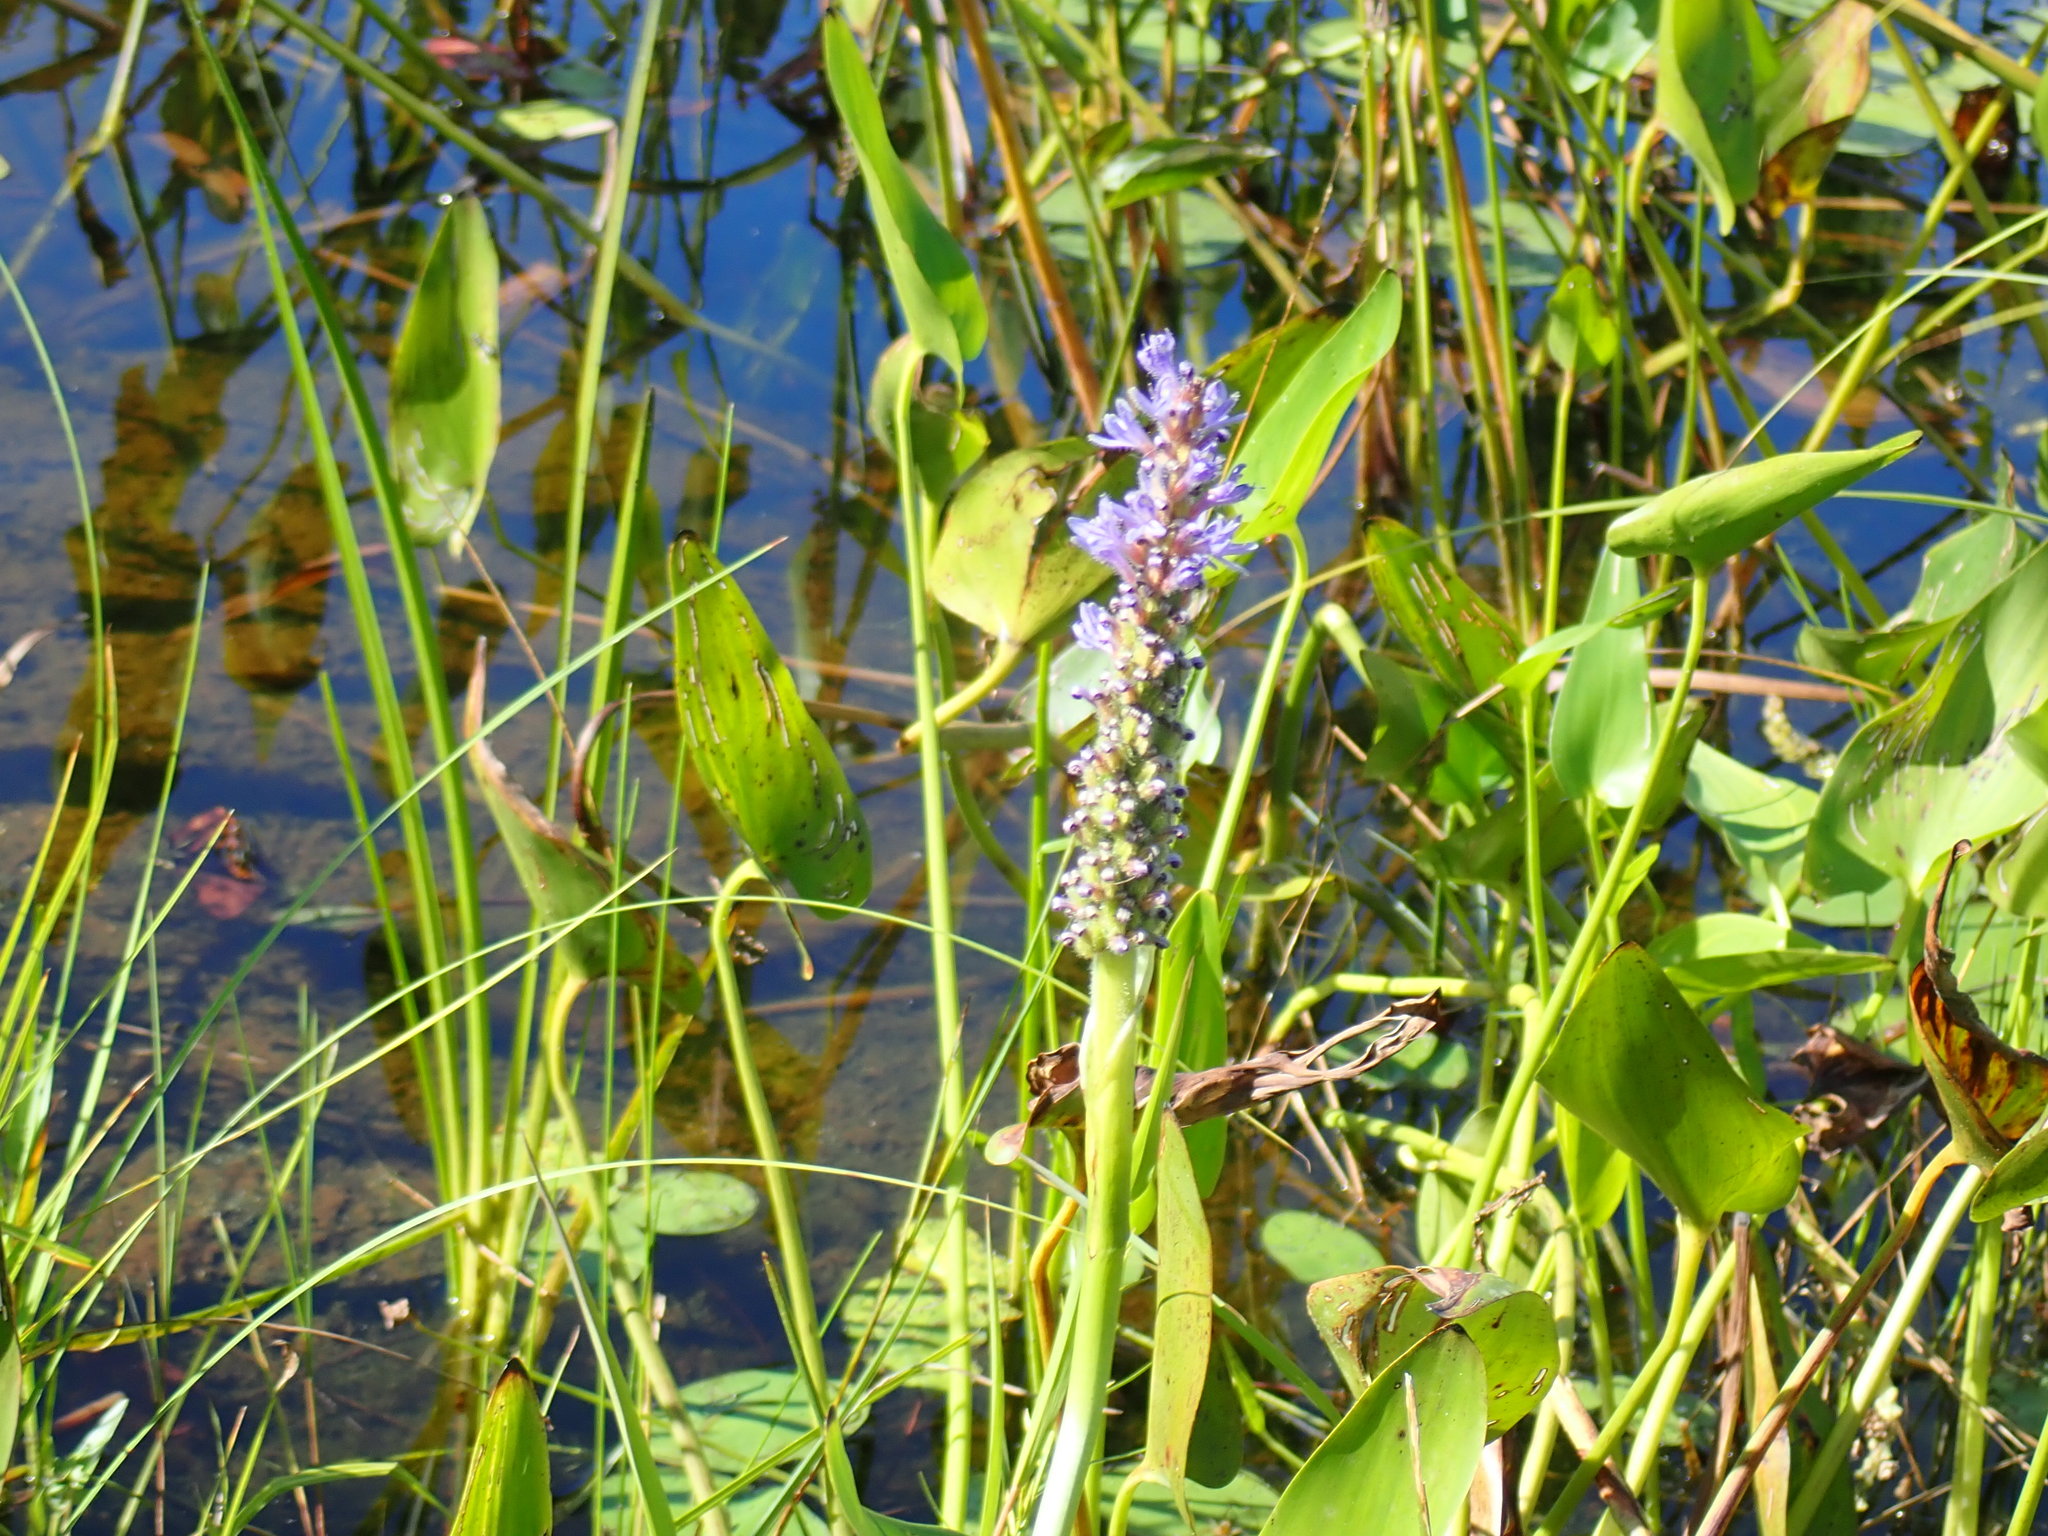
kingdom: Plantae
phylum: Tracheophyta
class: Liliopsida
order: Commelinales
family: Pontederiaceae
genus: Pontederia
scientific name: Pontederia cordata
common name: Pickerelweed
